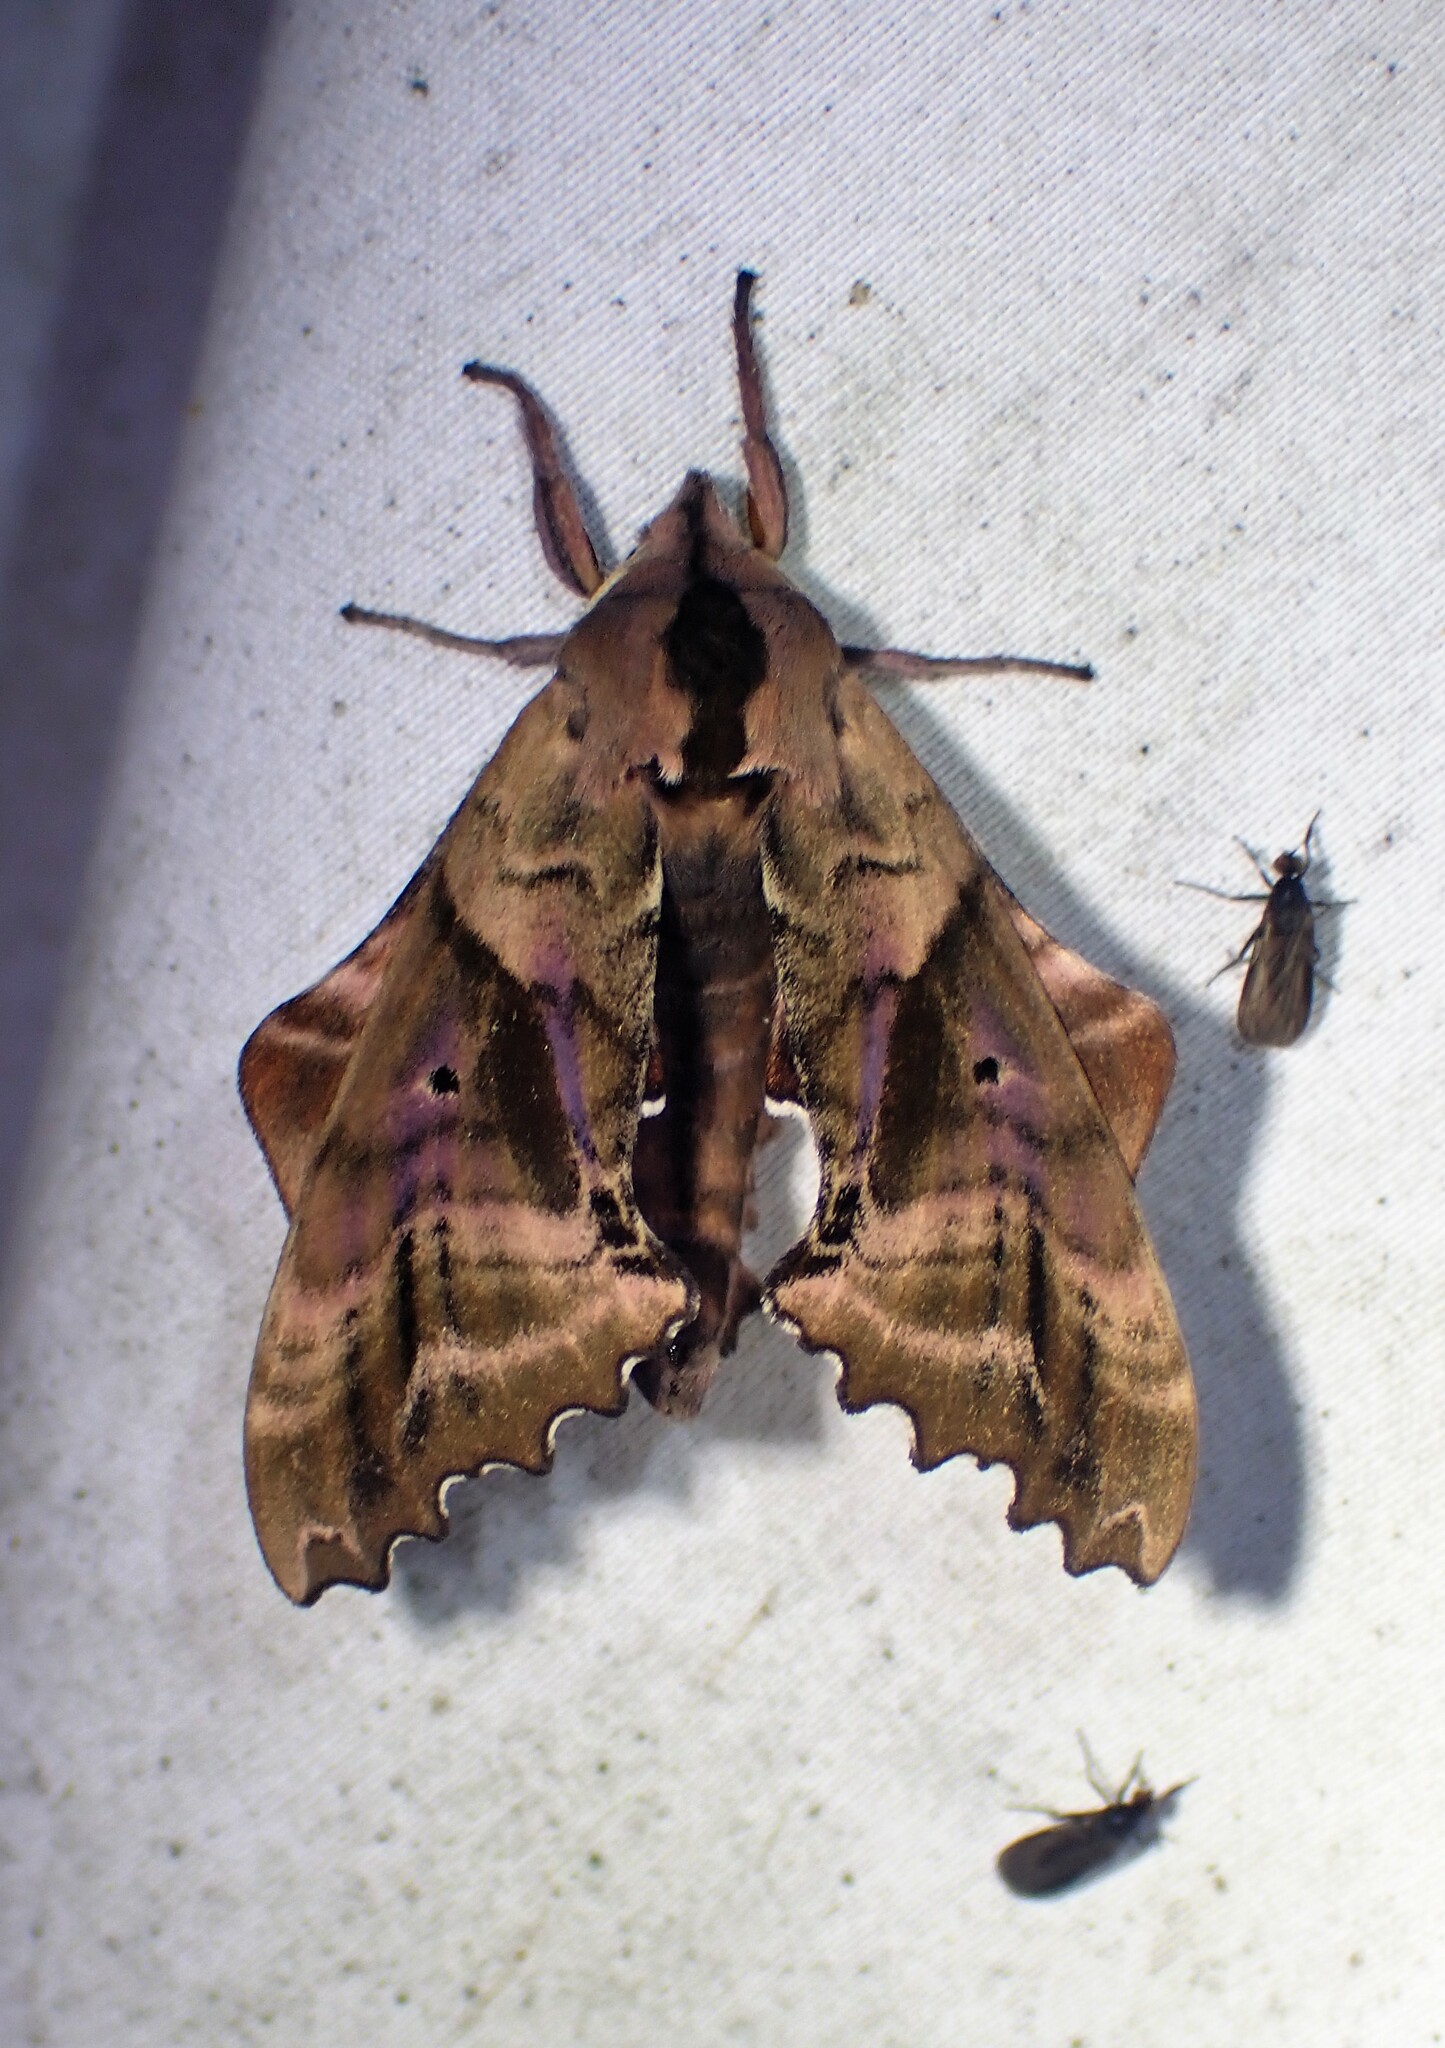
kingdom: Animalia
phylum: Arthropoda
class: Insecta
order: Lepidoptera
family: Sphingidae
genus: Paonias
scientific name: Paonias excaecata
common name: Blind-eyed sphinx
